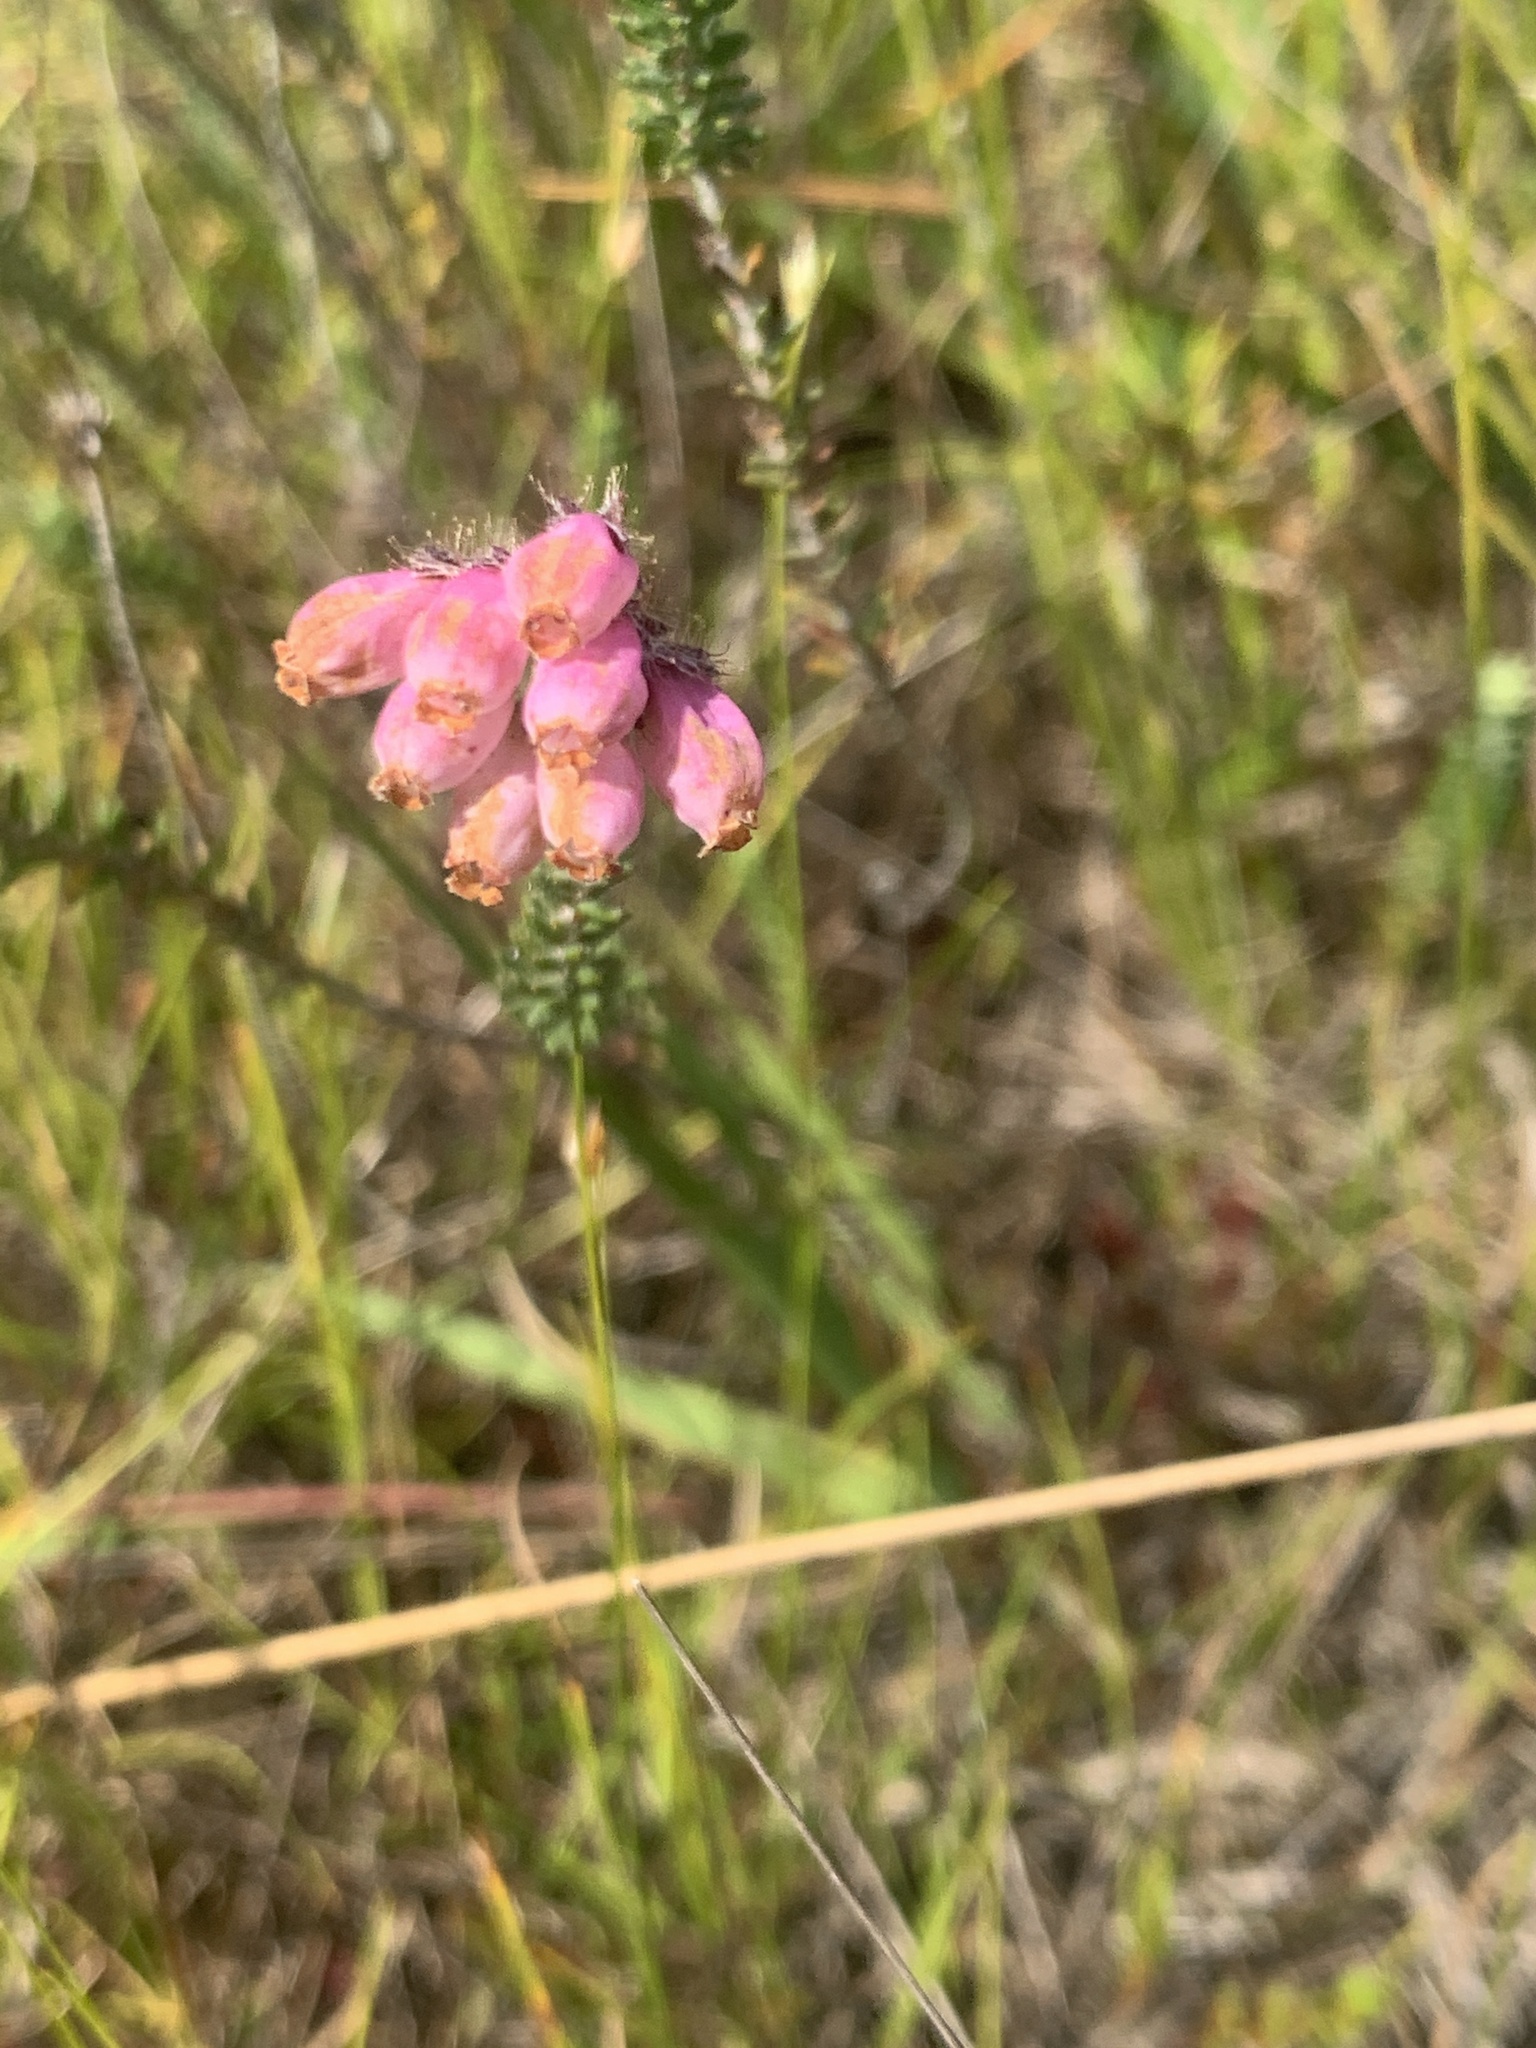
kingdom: Plantae
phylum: Tracheophyta
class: Magnoliopsida
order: Ericales
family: Ericaceae
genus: Erica
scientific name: Erica tetralix
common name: Cross-leaved heath
